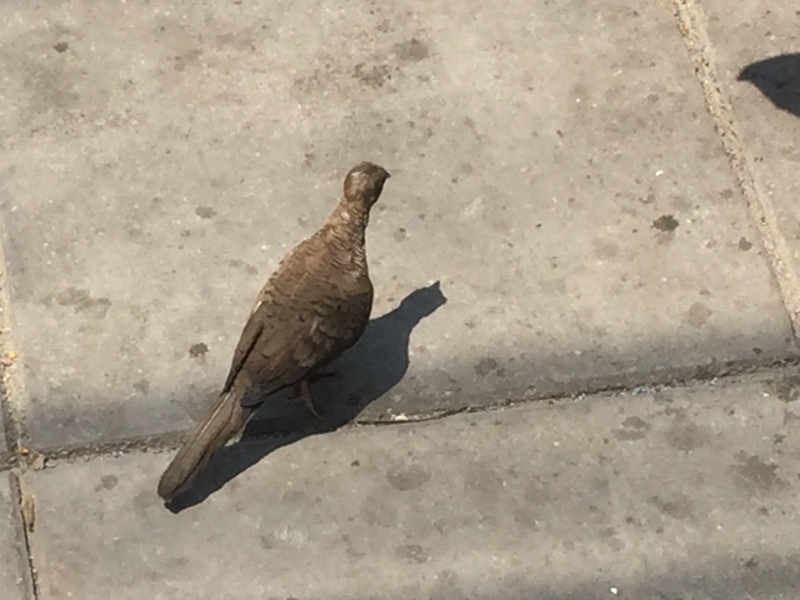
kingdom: Animalia
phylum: Chordata
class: Aves
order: Columbiformes
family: Columbidae
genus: Geopelia
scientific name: Geopelia striata
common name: Zebra dove
